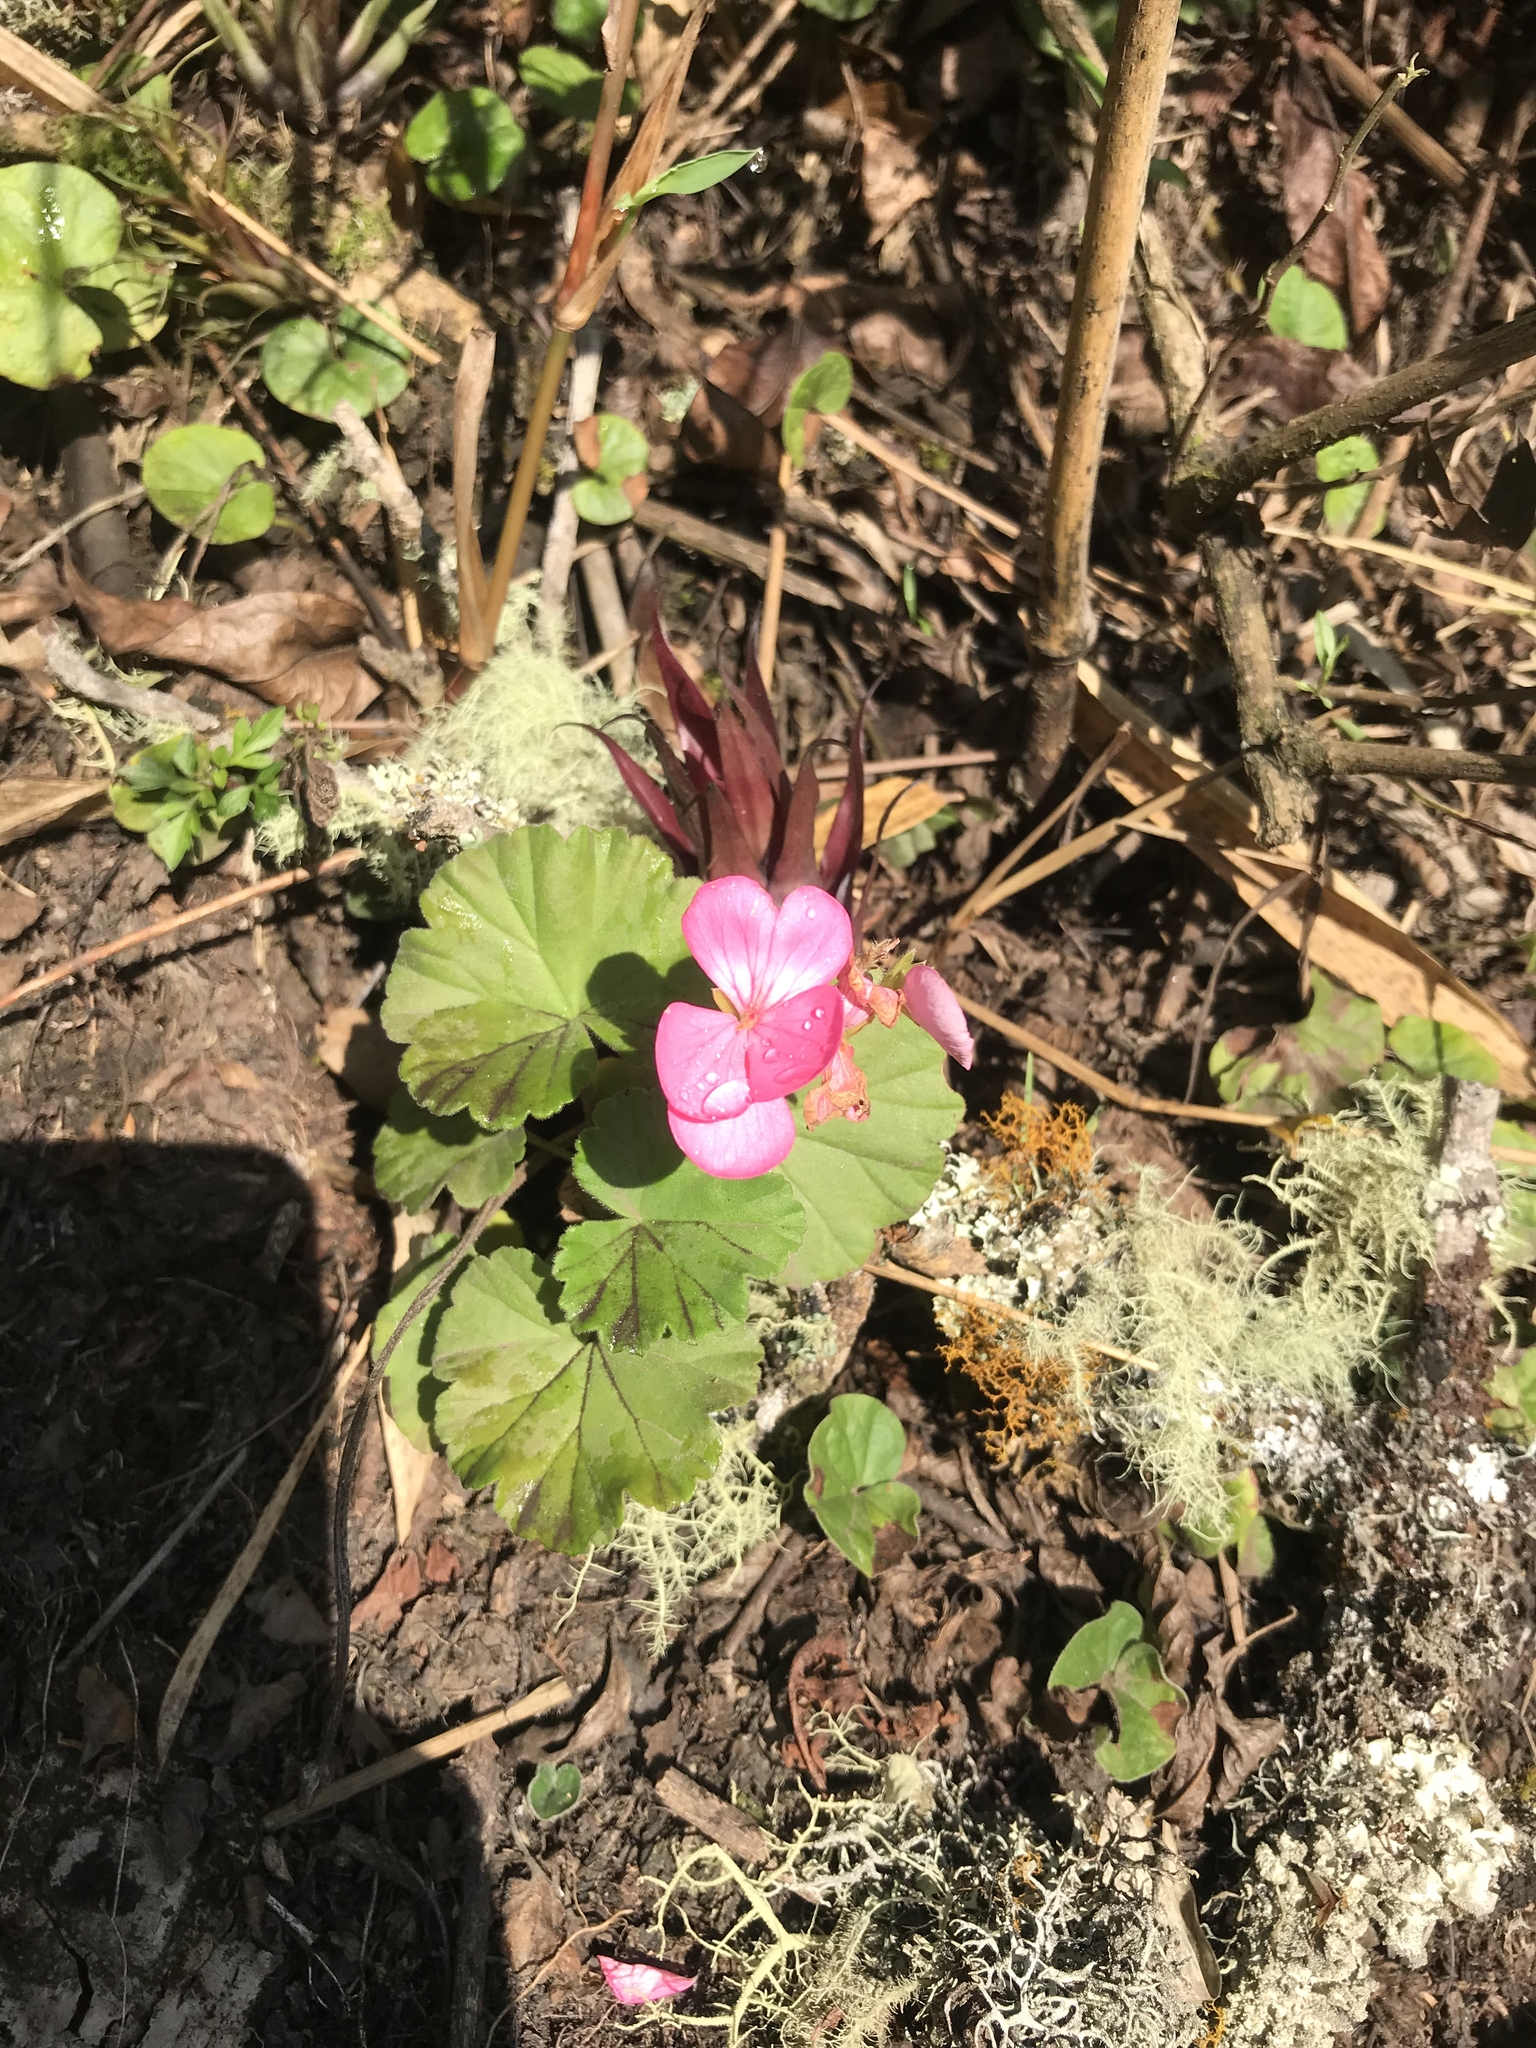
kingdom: Plantae
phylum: Tracheophyta
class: Magnoliopsida
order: Geraniales
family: Geraniaceae
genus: Pelargonium
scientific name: Pelargonium hybridum
